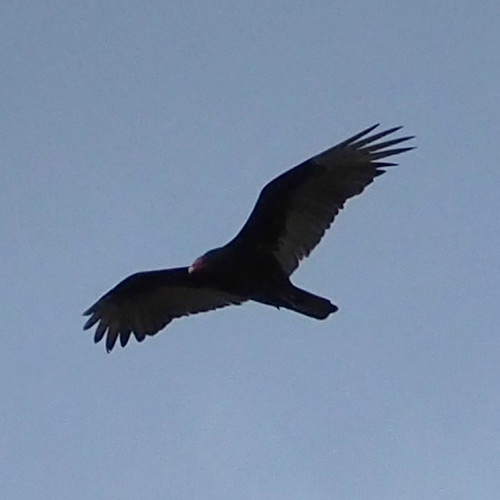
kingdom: Animalia
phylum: Chordata
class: Aves
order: Accipitriformes
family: Cathartidae
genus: Cathartes
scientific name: Cathartes aura
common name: Turkey vulture
